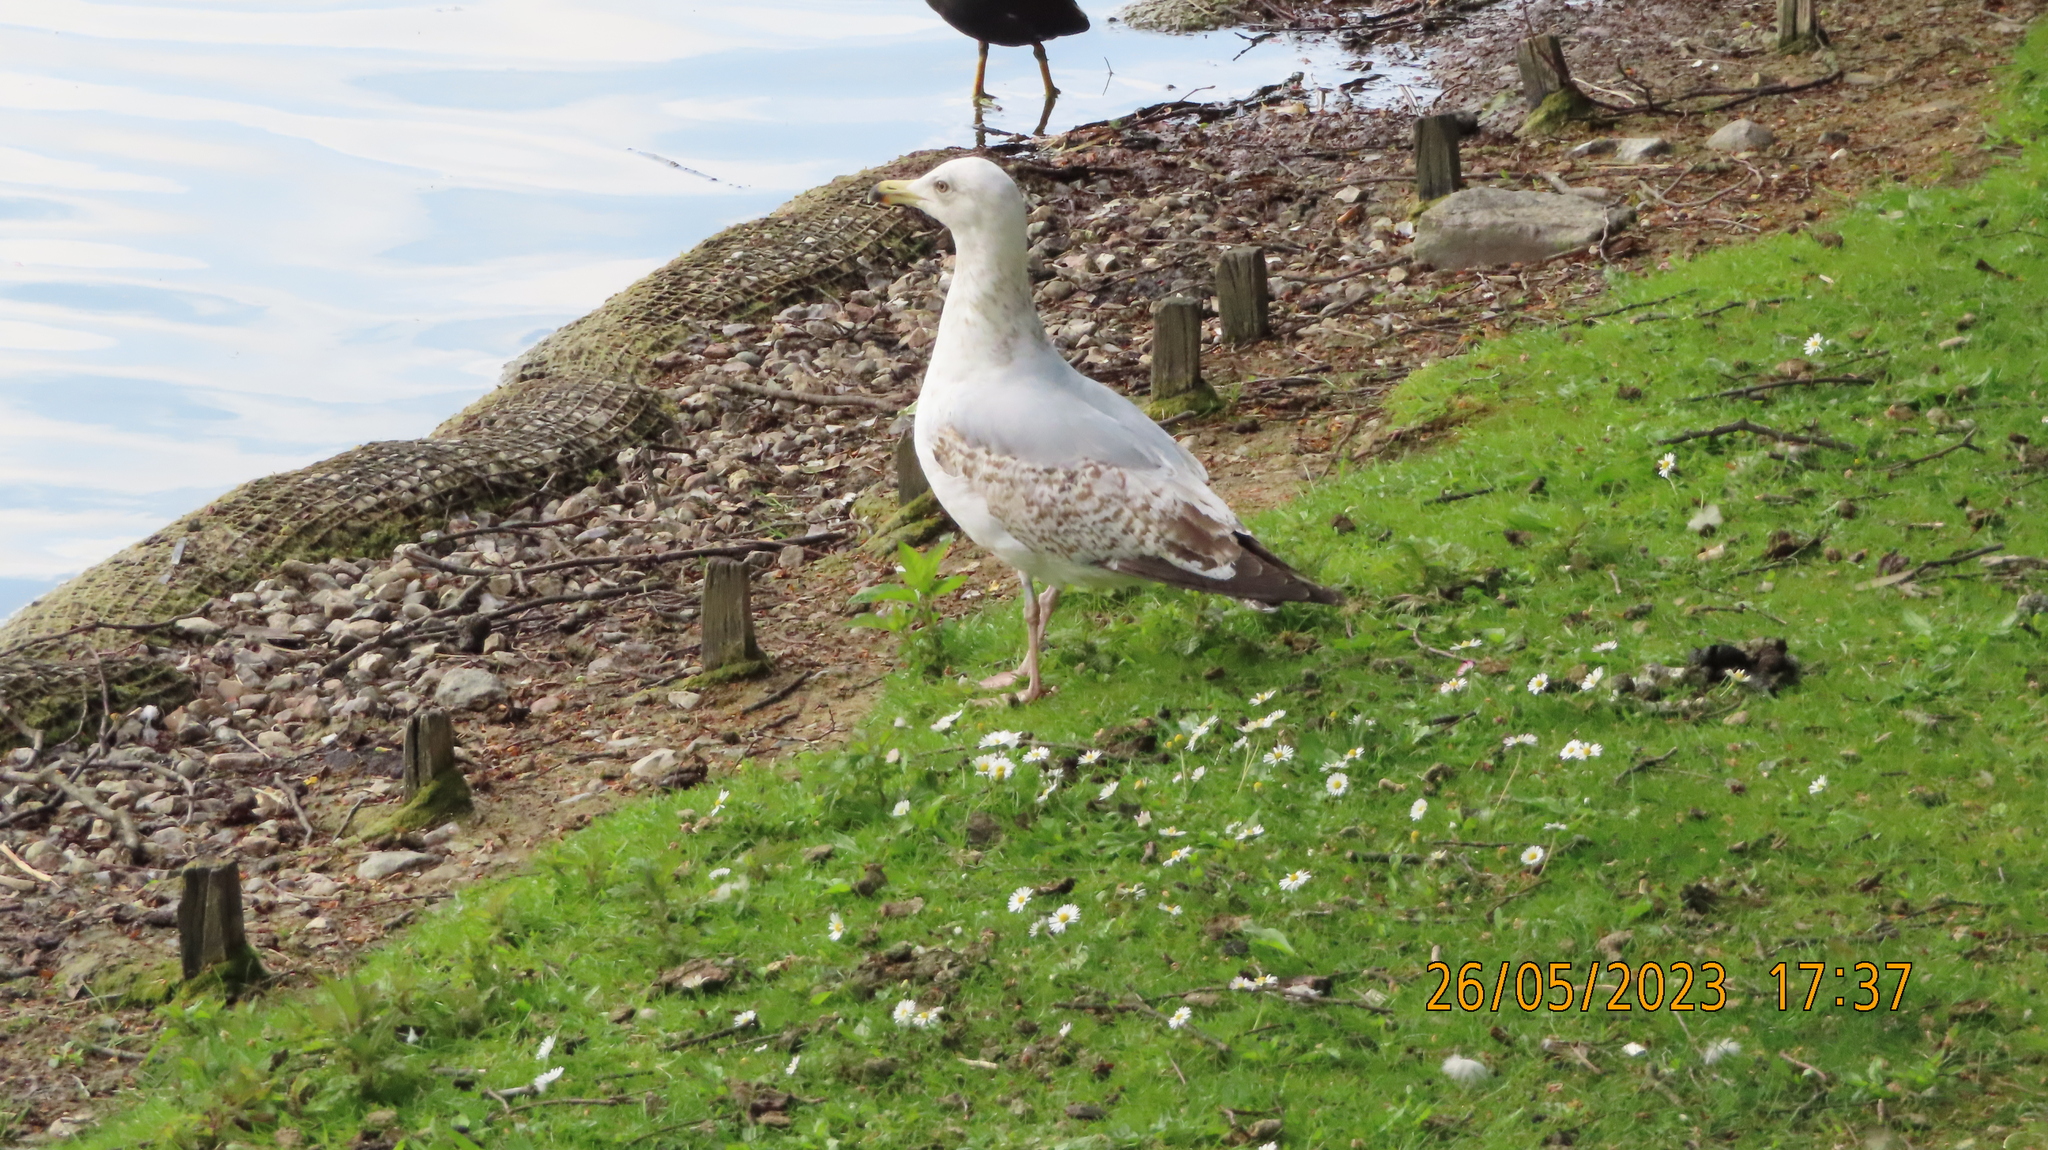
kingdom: Animalia
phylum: Chordata
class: Aves
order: Charadriiformes
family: Laridae
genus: Larus
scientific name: Larus argentatus
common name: Herring gull
